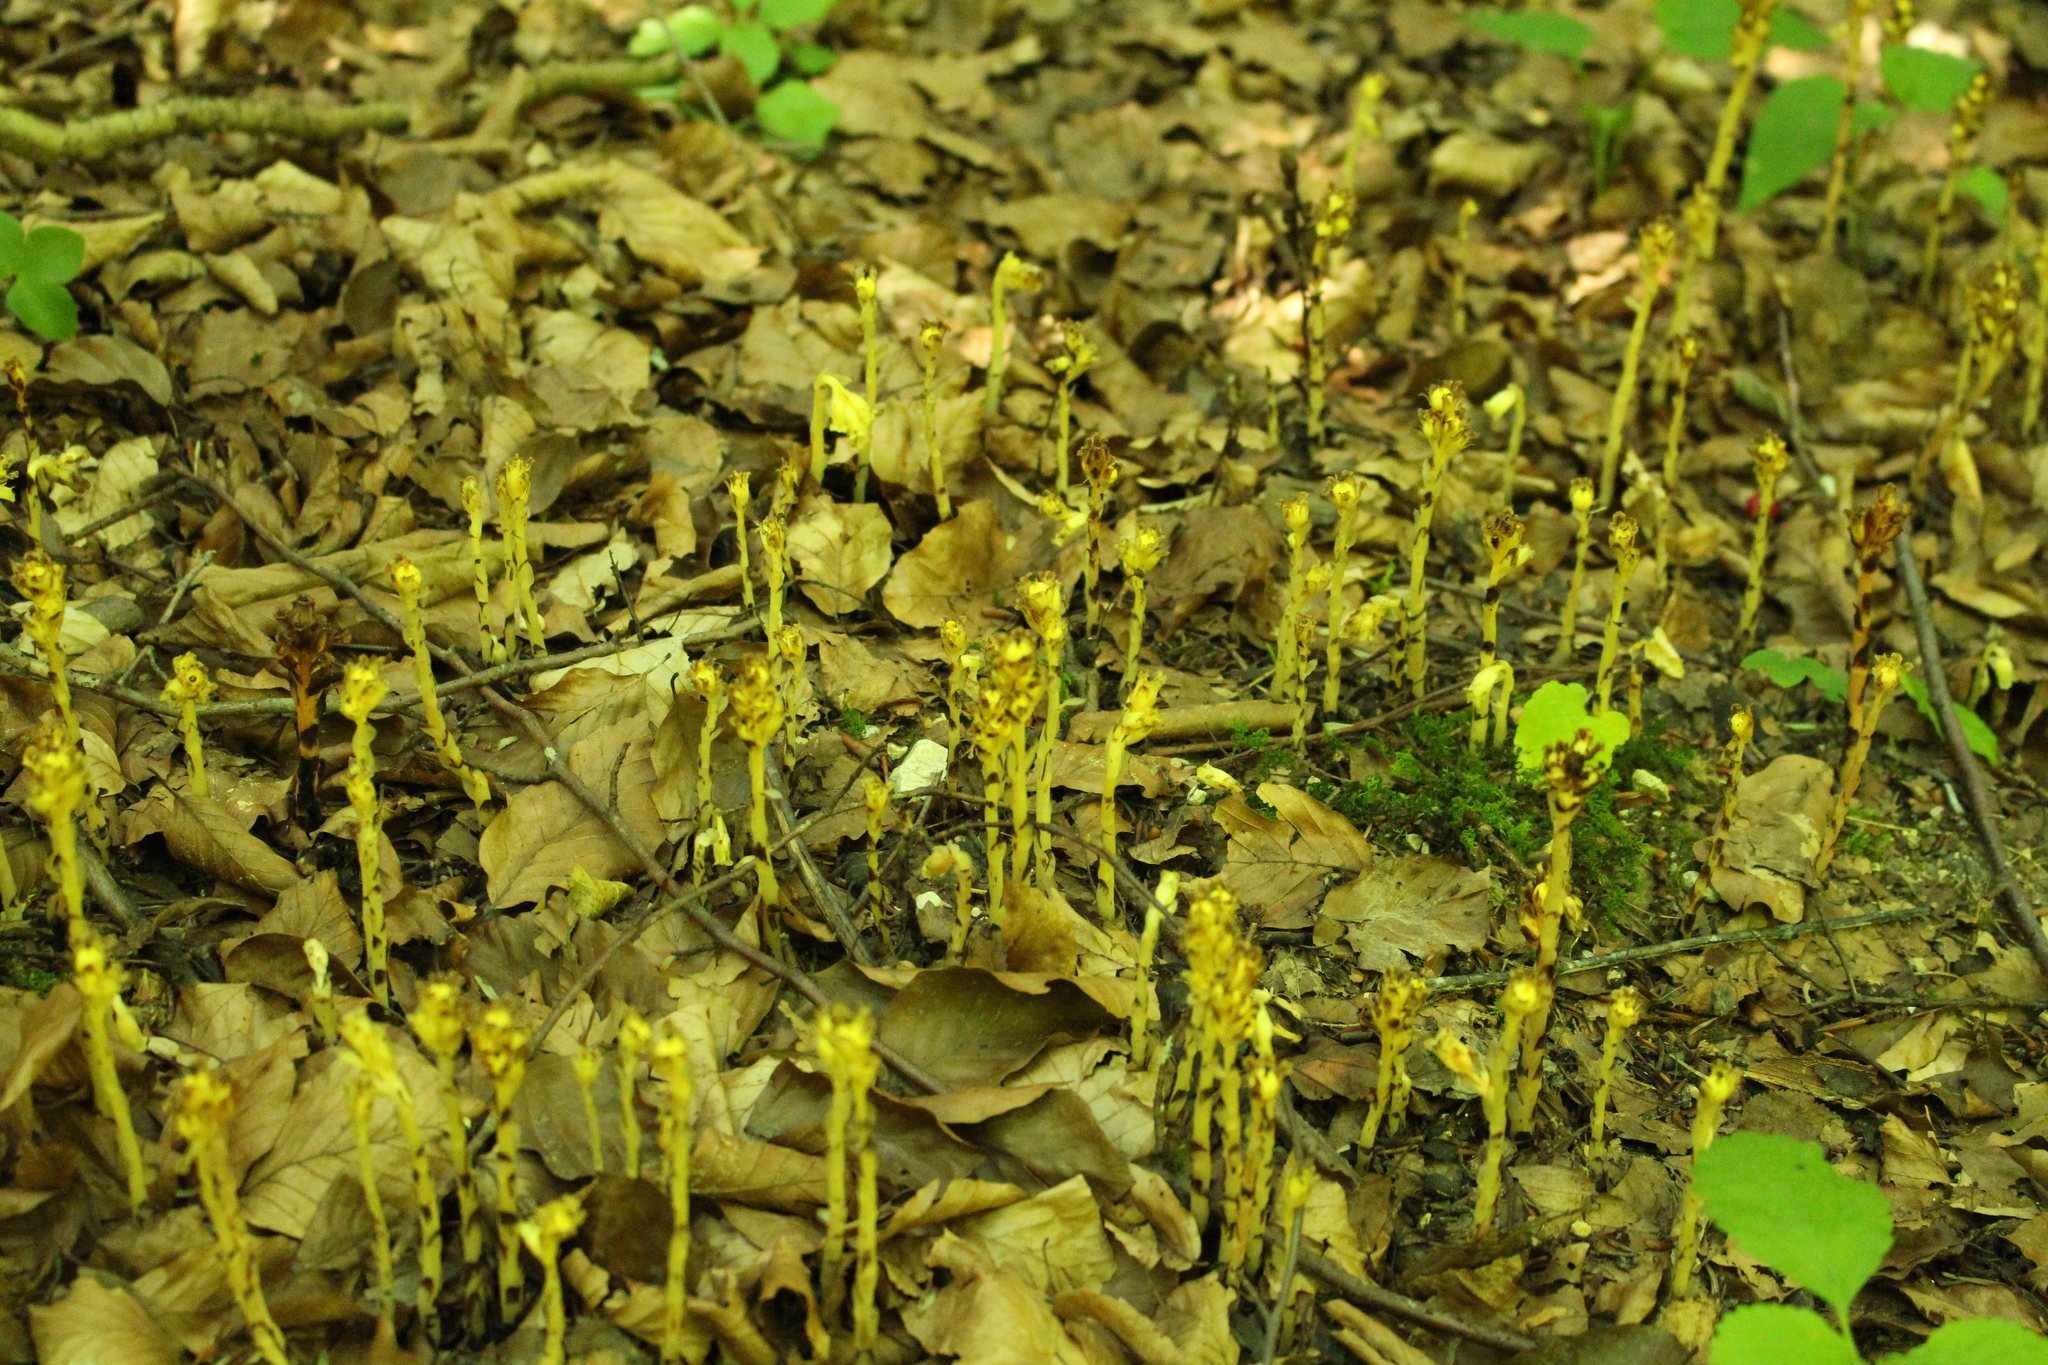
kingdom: Plantae
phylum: Tracheophyta
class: Magnoliopsida
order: Ericales
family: Ericaceae
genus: Hypopitys
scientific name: Hypopitys monotropa
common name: Yellow bird's-nest
